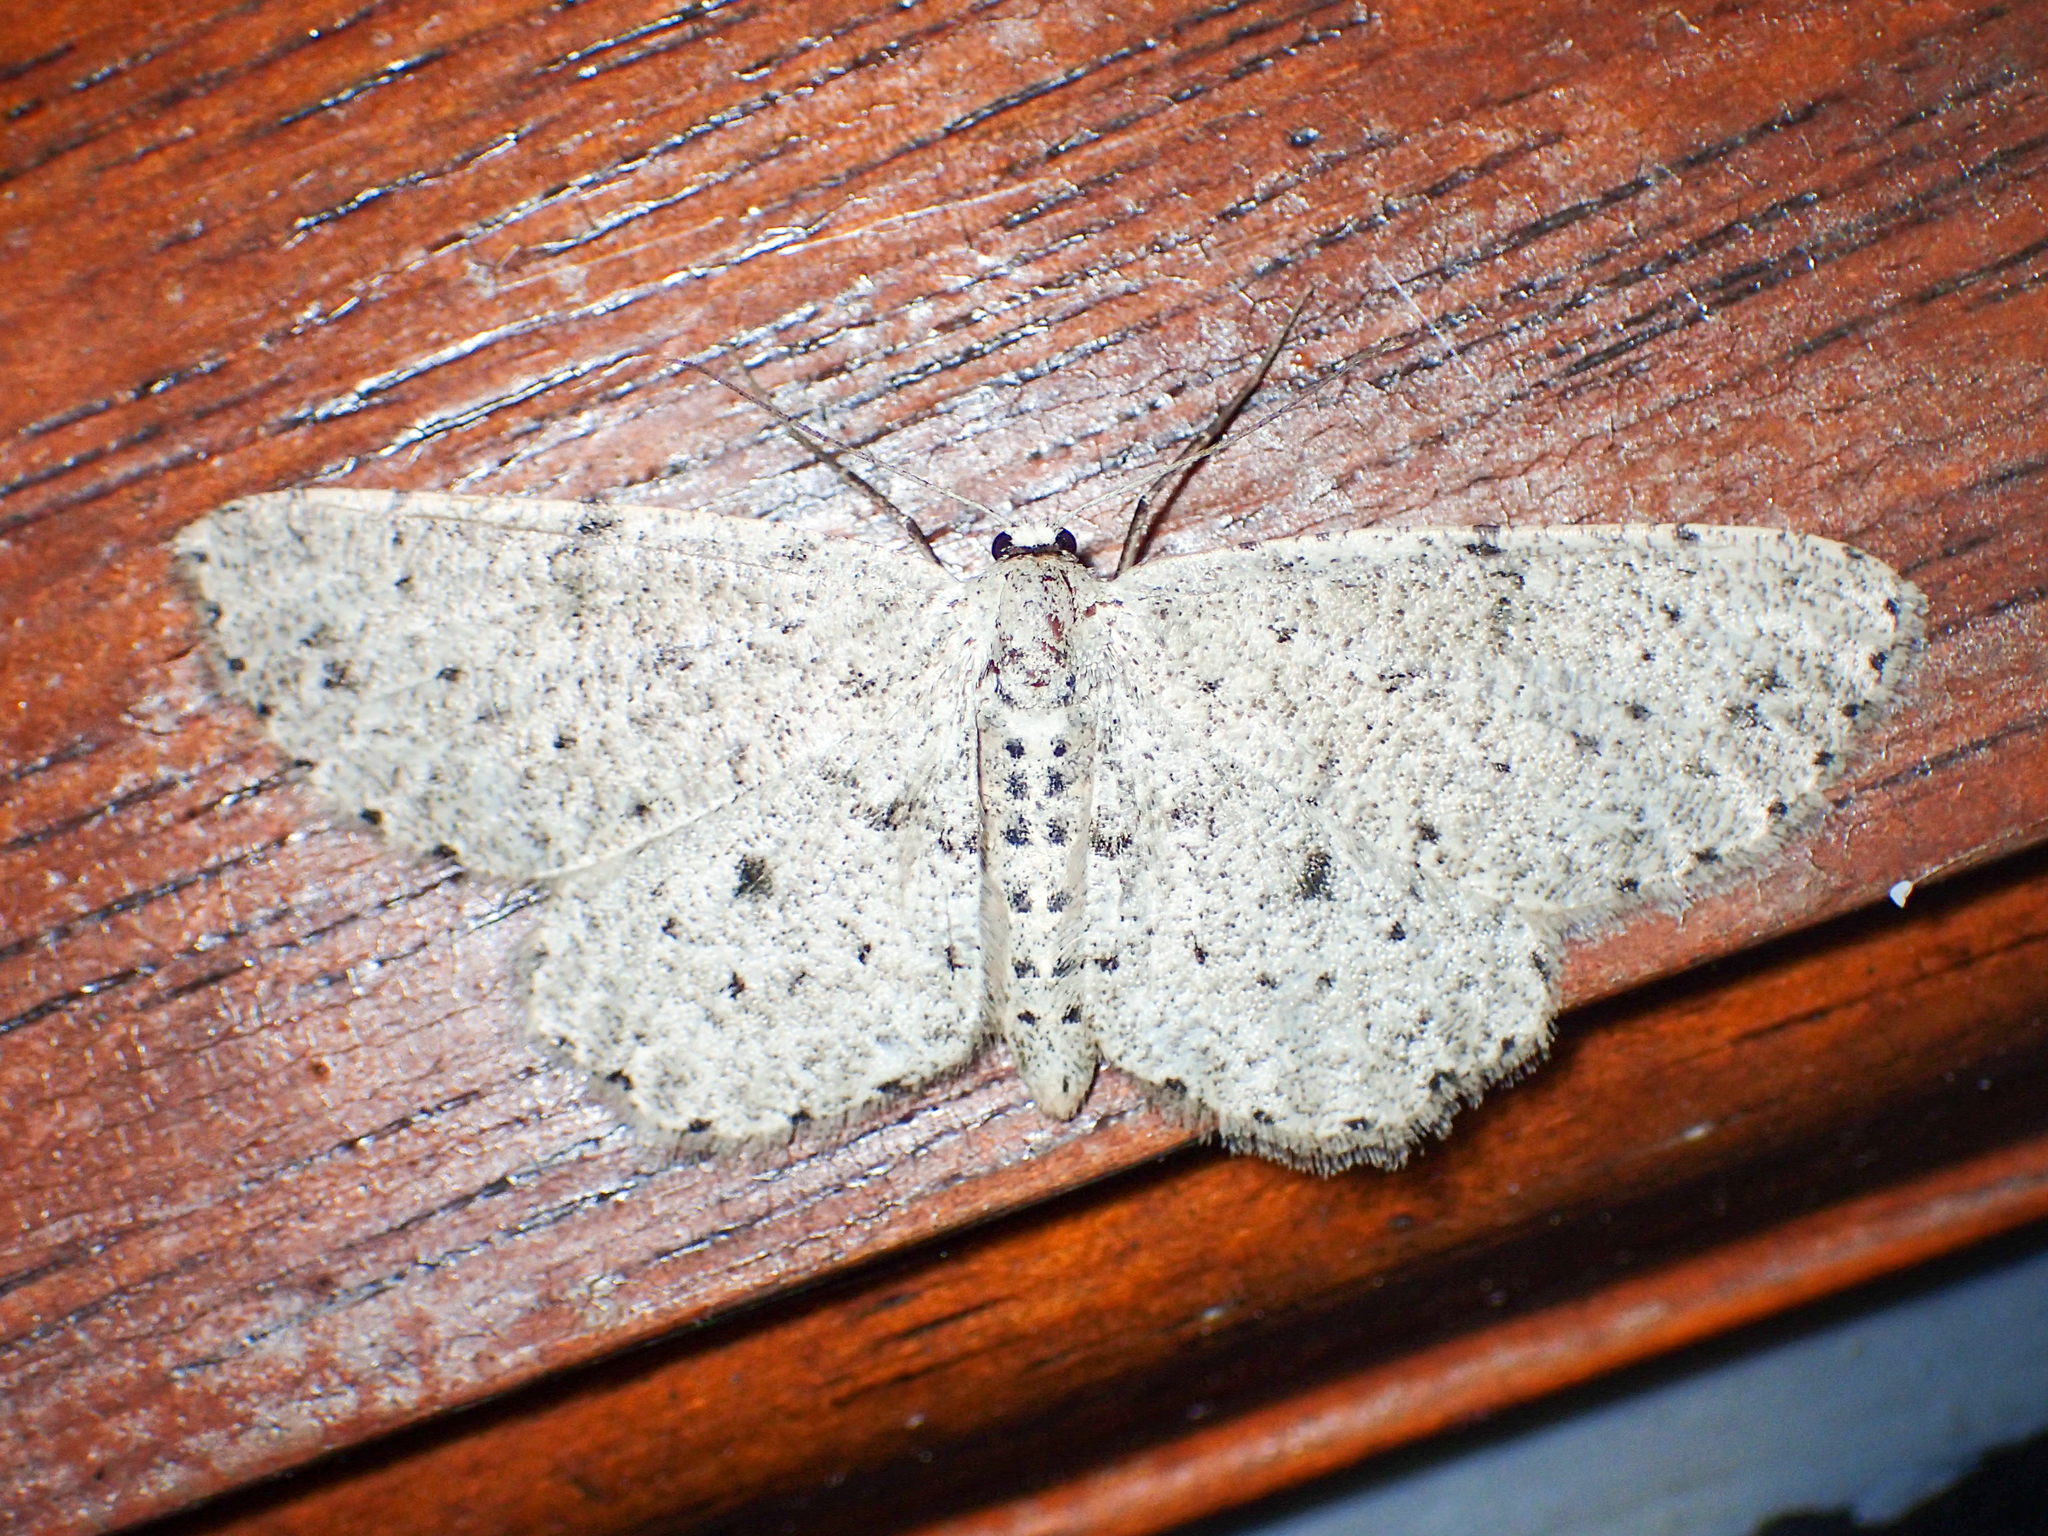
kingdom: Animalia
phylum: Arthropoda
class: Insecta
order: Lepidoptera
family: Geometridae
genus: Glena
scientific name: Glena cribrataria
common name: Dotted gray
